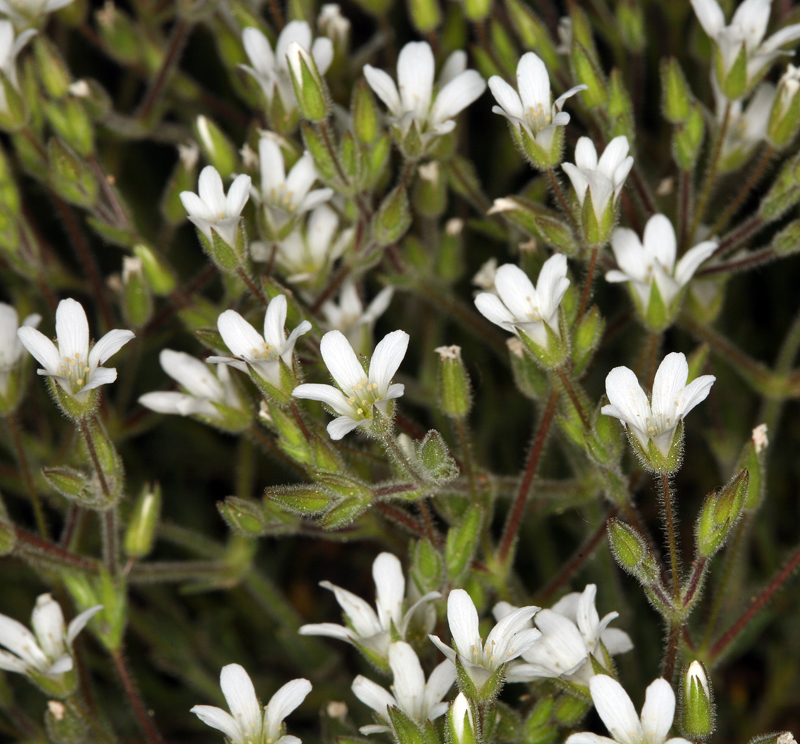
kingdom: Plantae
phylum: Tracheophyta
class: Magnoliopsida
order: Caryophyllales
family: Caryophyllaceae
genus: Sabulina
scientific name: Sabulina nuttallii
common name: Nuttall's stitchwort
